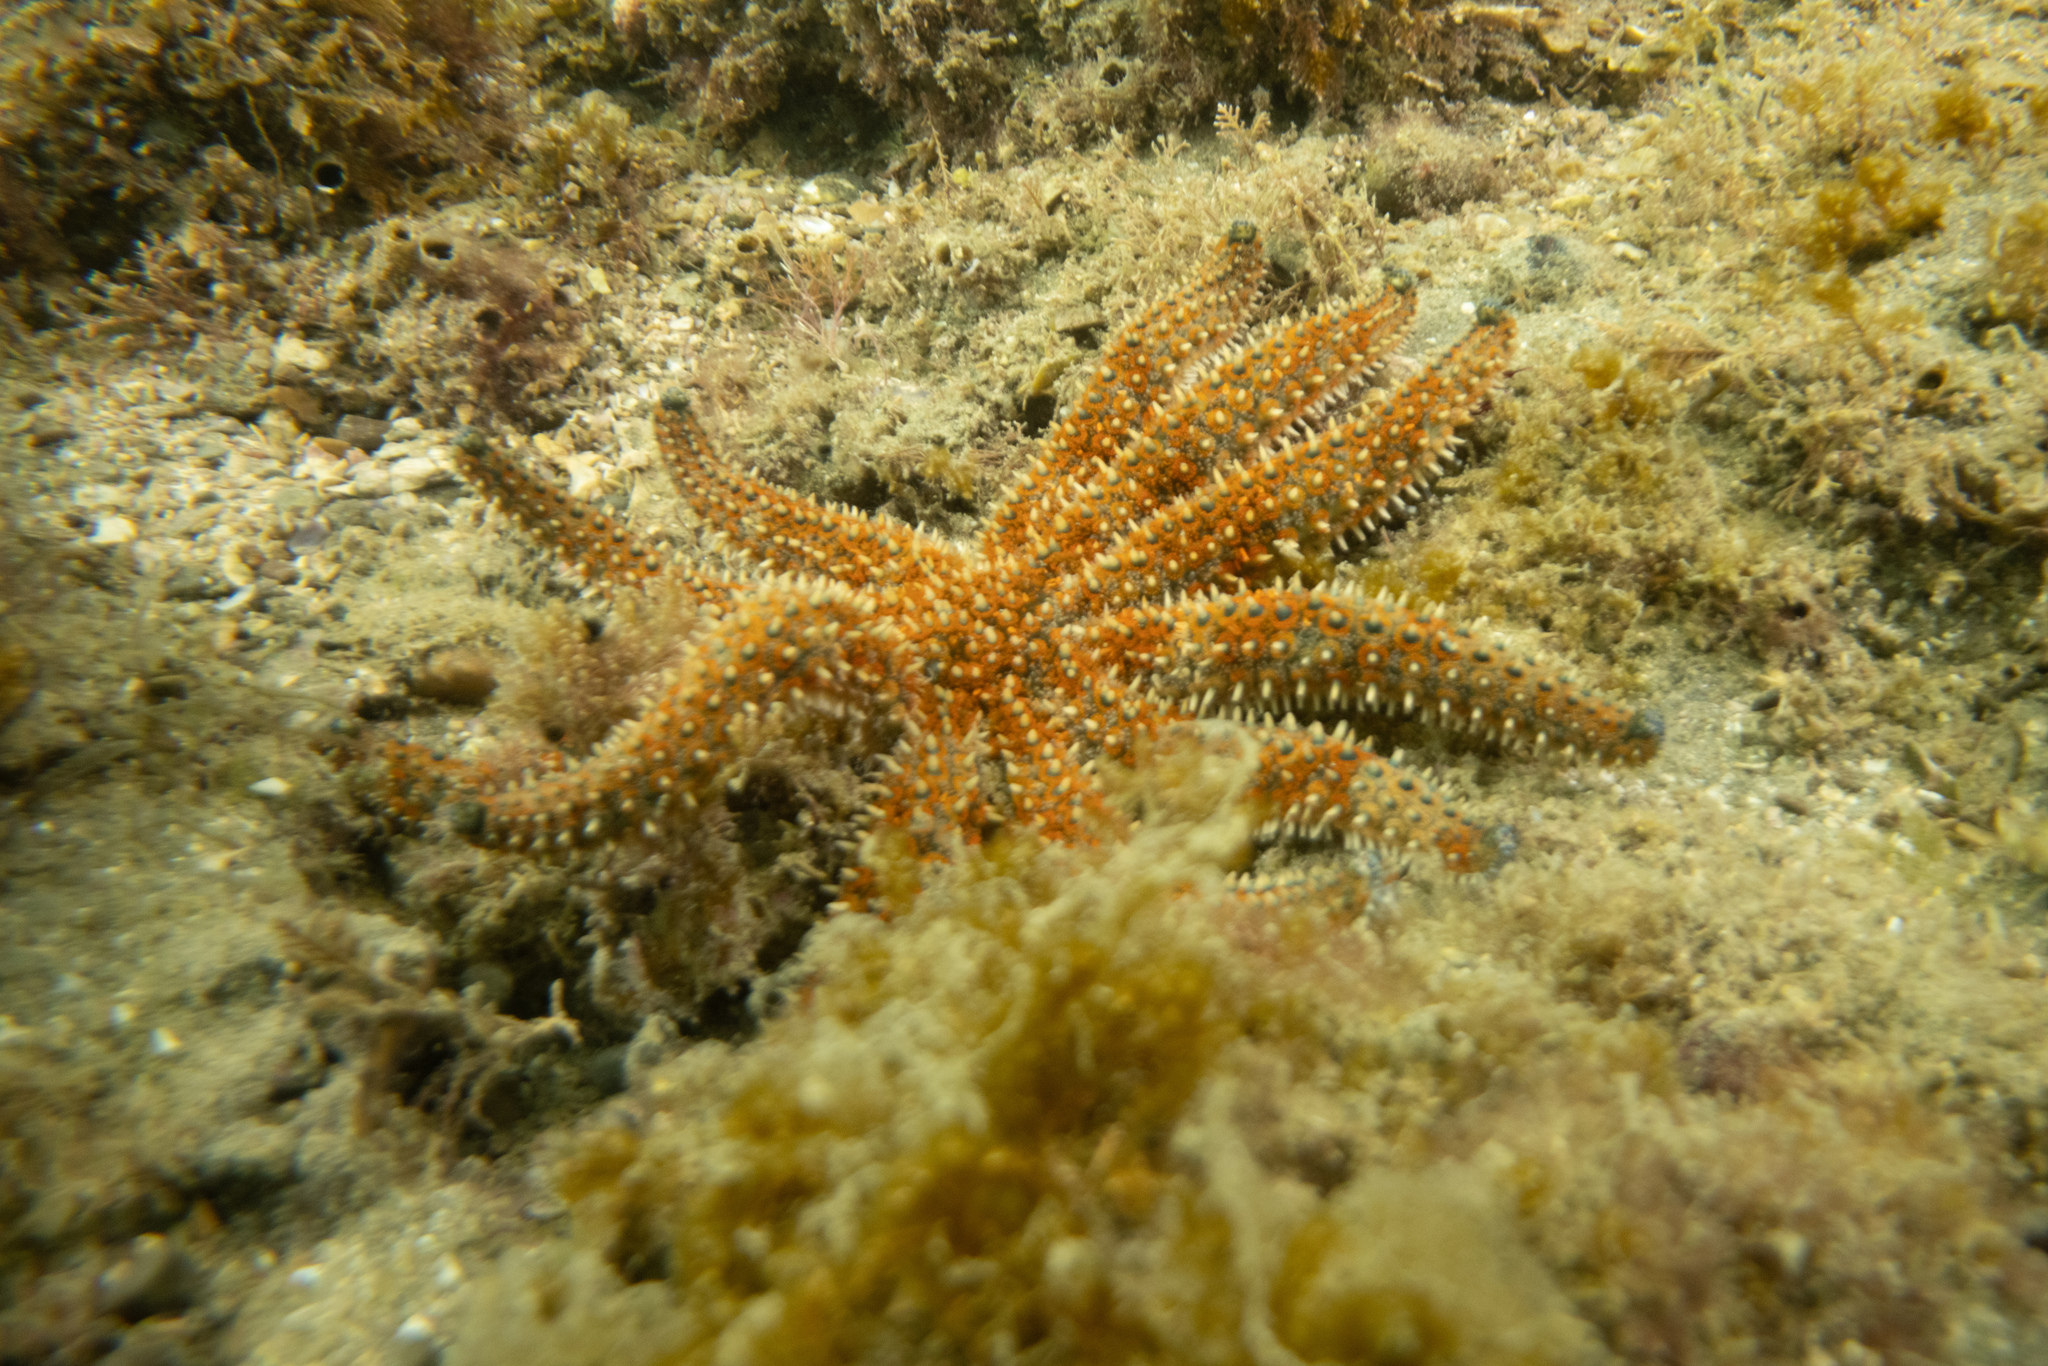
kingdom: Animalia
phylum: Echinodermata
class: Asteroidea
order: Forcipulatida
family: Asteriidae
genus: Coscinasterias
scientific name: Coscinasterias muricata
